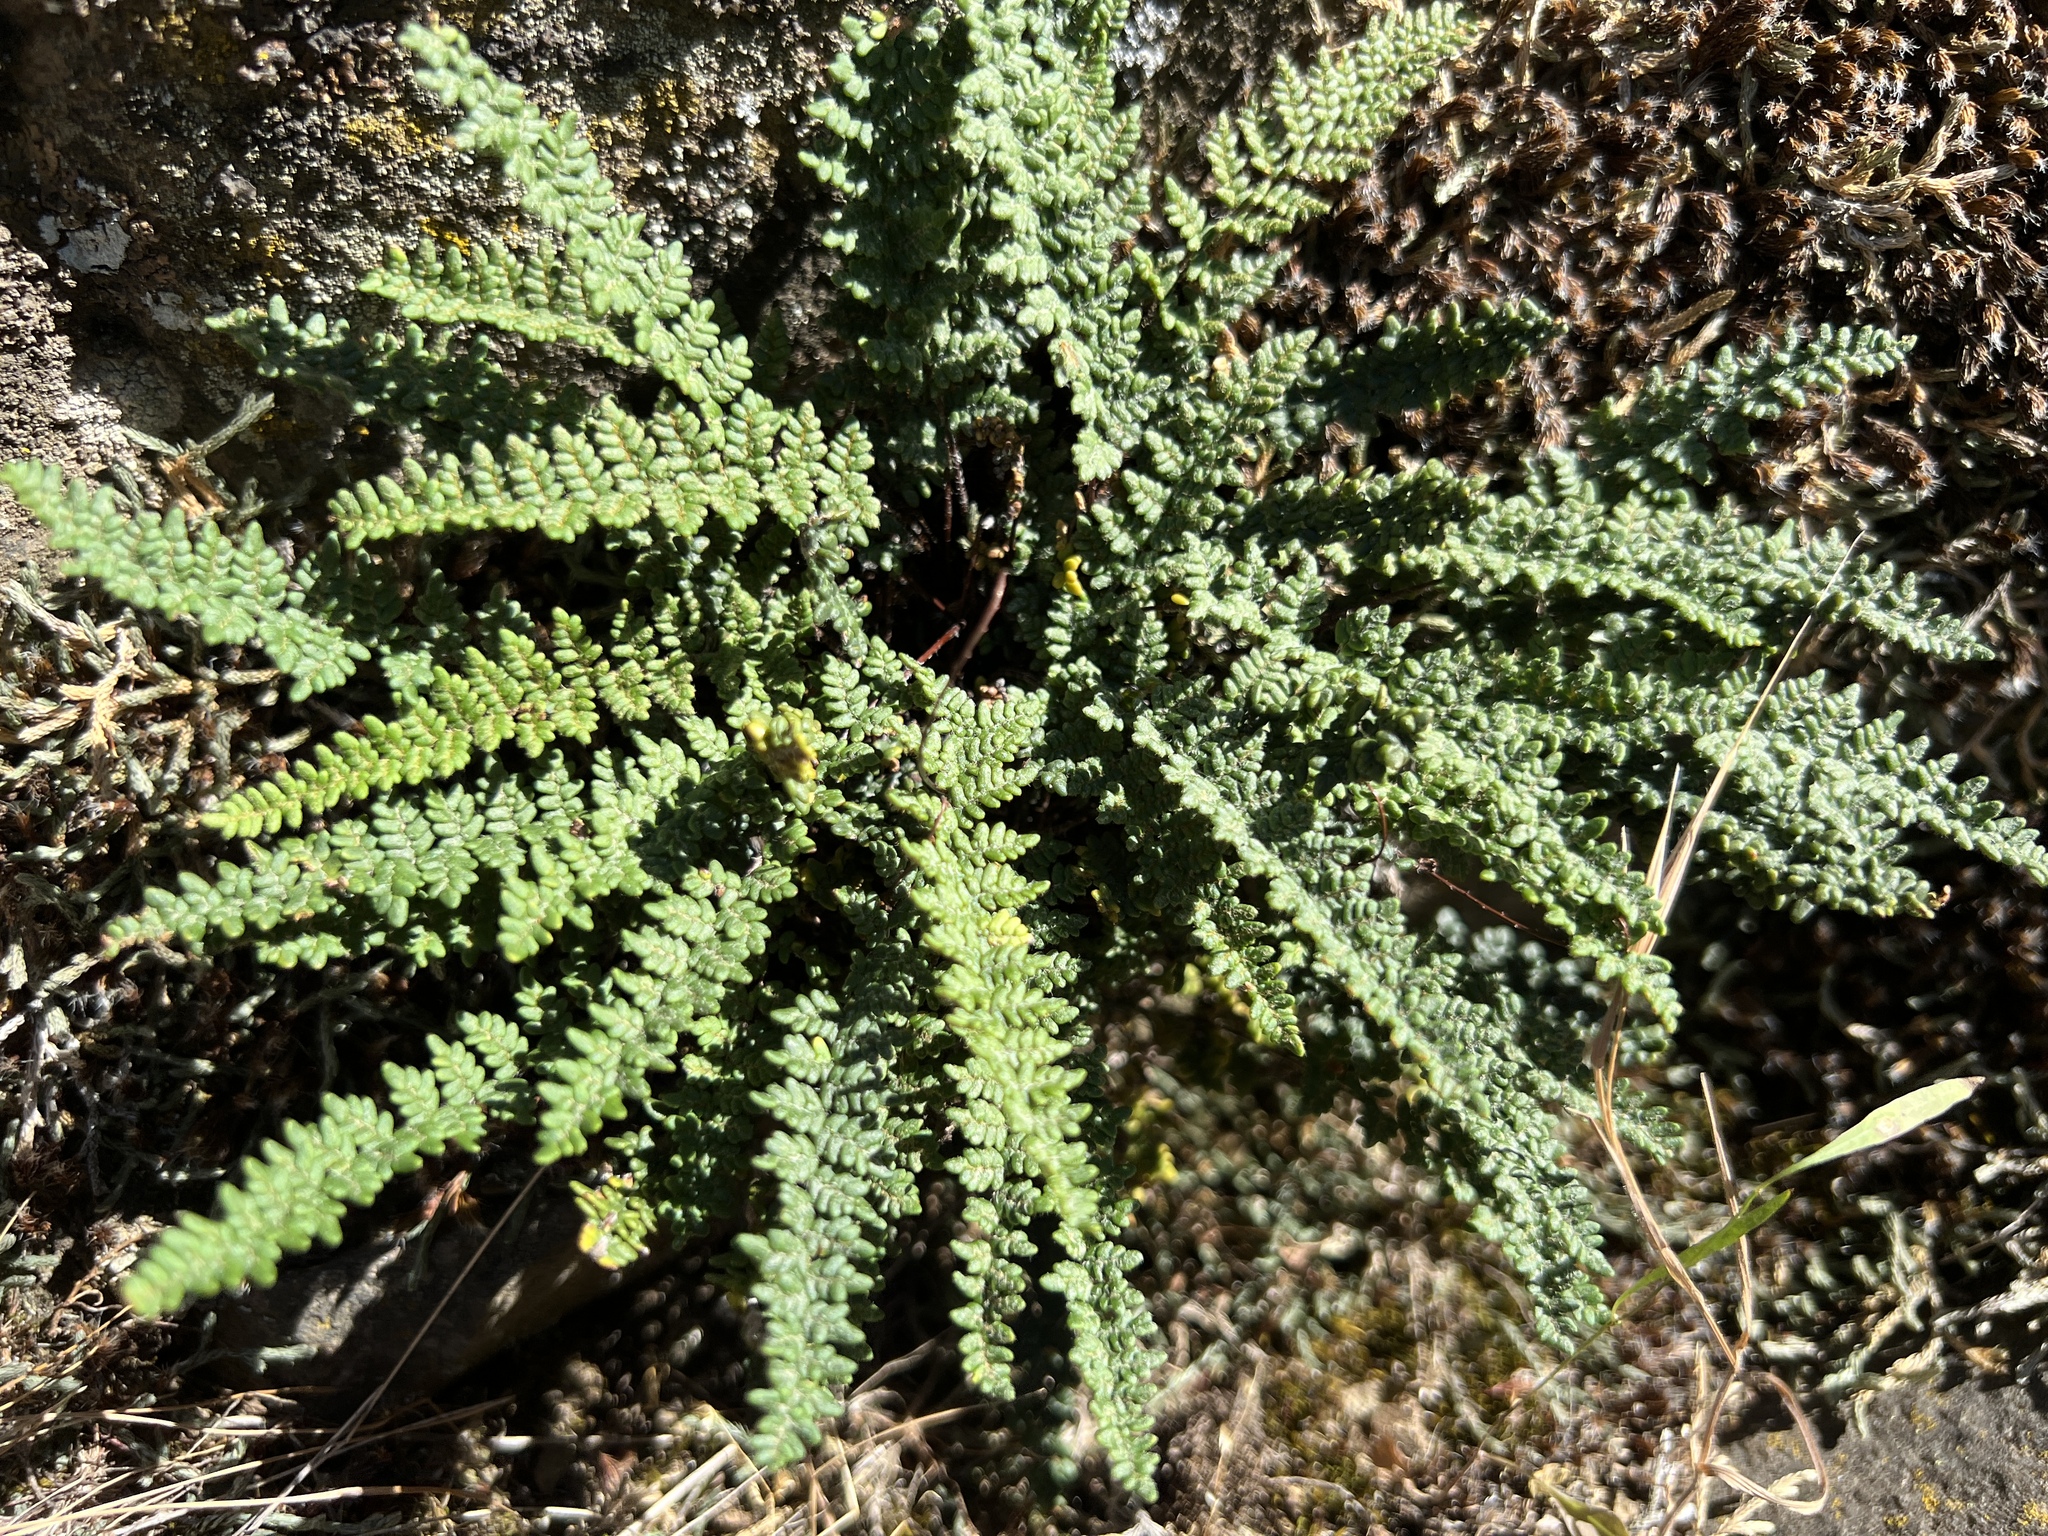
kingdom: Plantae
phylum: Tracheophyta
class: Polypodiopsida
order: Polypodiales
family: Pteridaceae
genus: Myriopteris
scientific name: Myriopteris gracillima
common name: Lace fern
